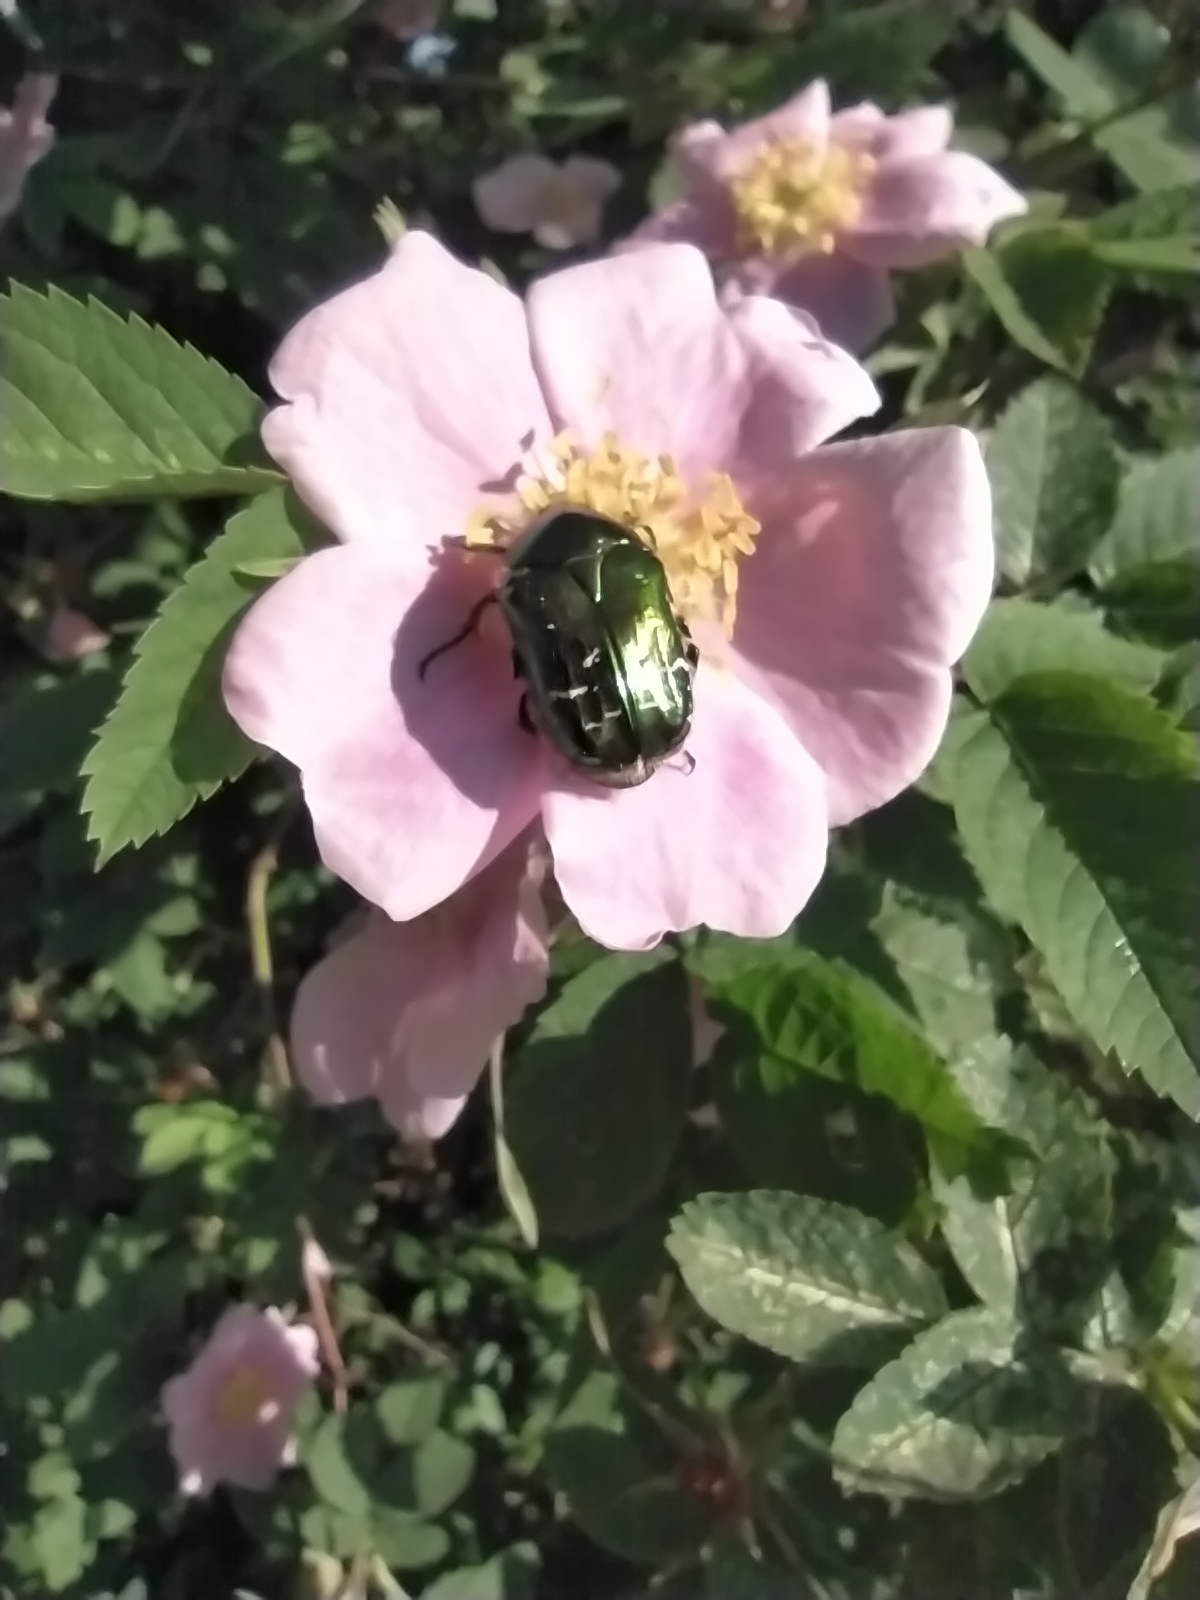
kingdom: Animalia
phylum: Arthropoda
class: Insecta
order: Coleoptera
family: Scarabaeidae
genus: Cetonia
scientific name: Cetonia aurata
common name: Rose chafer
